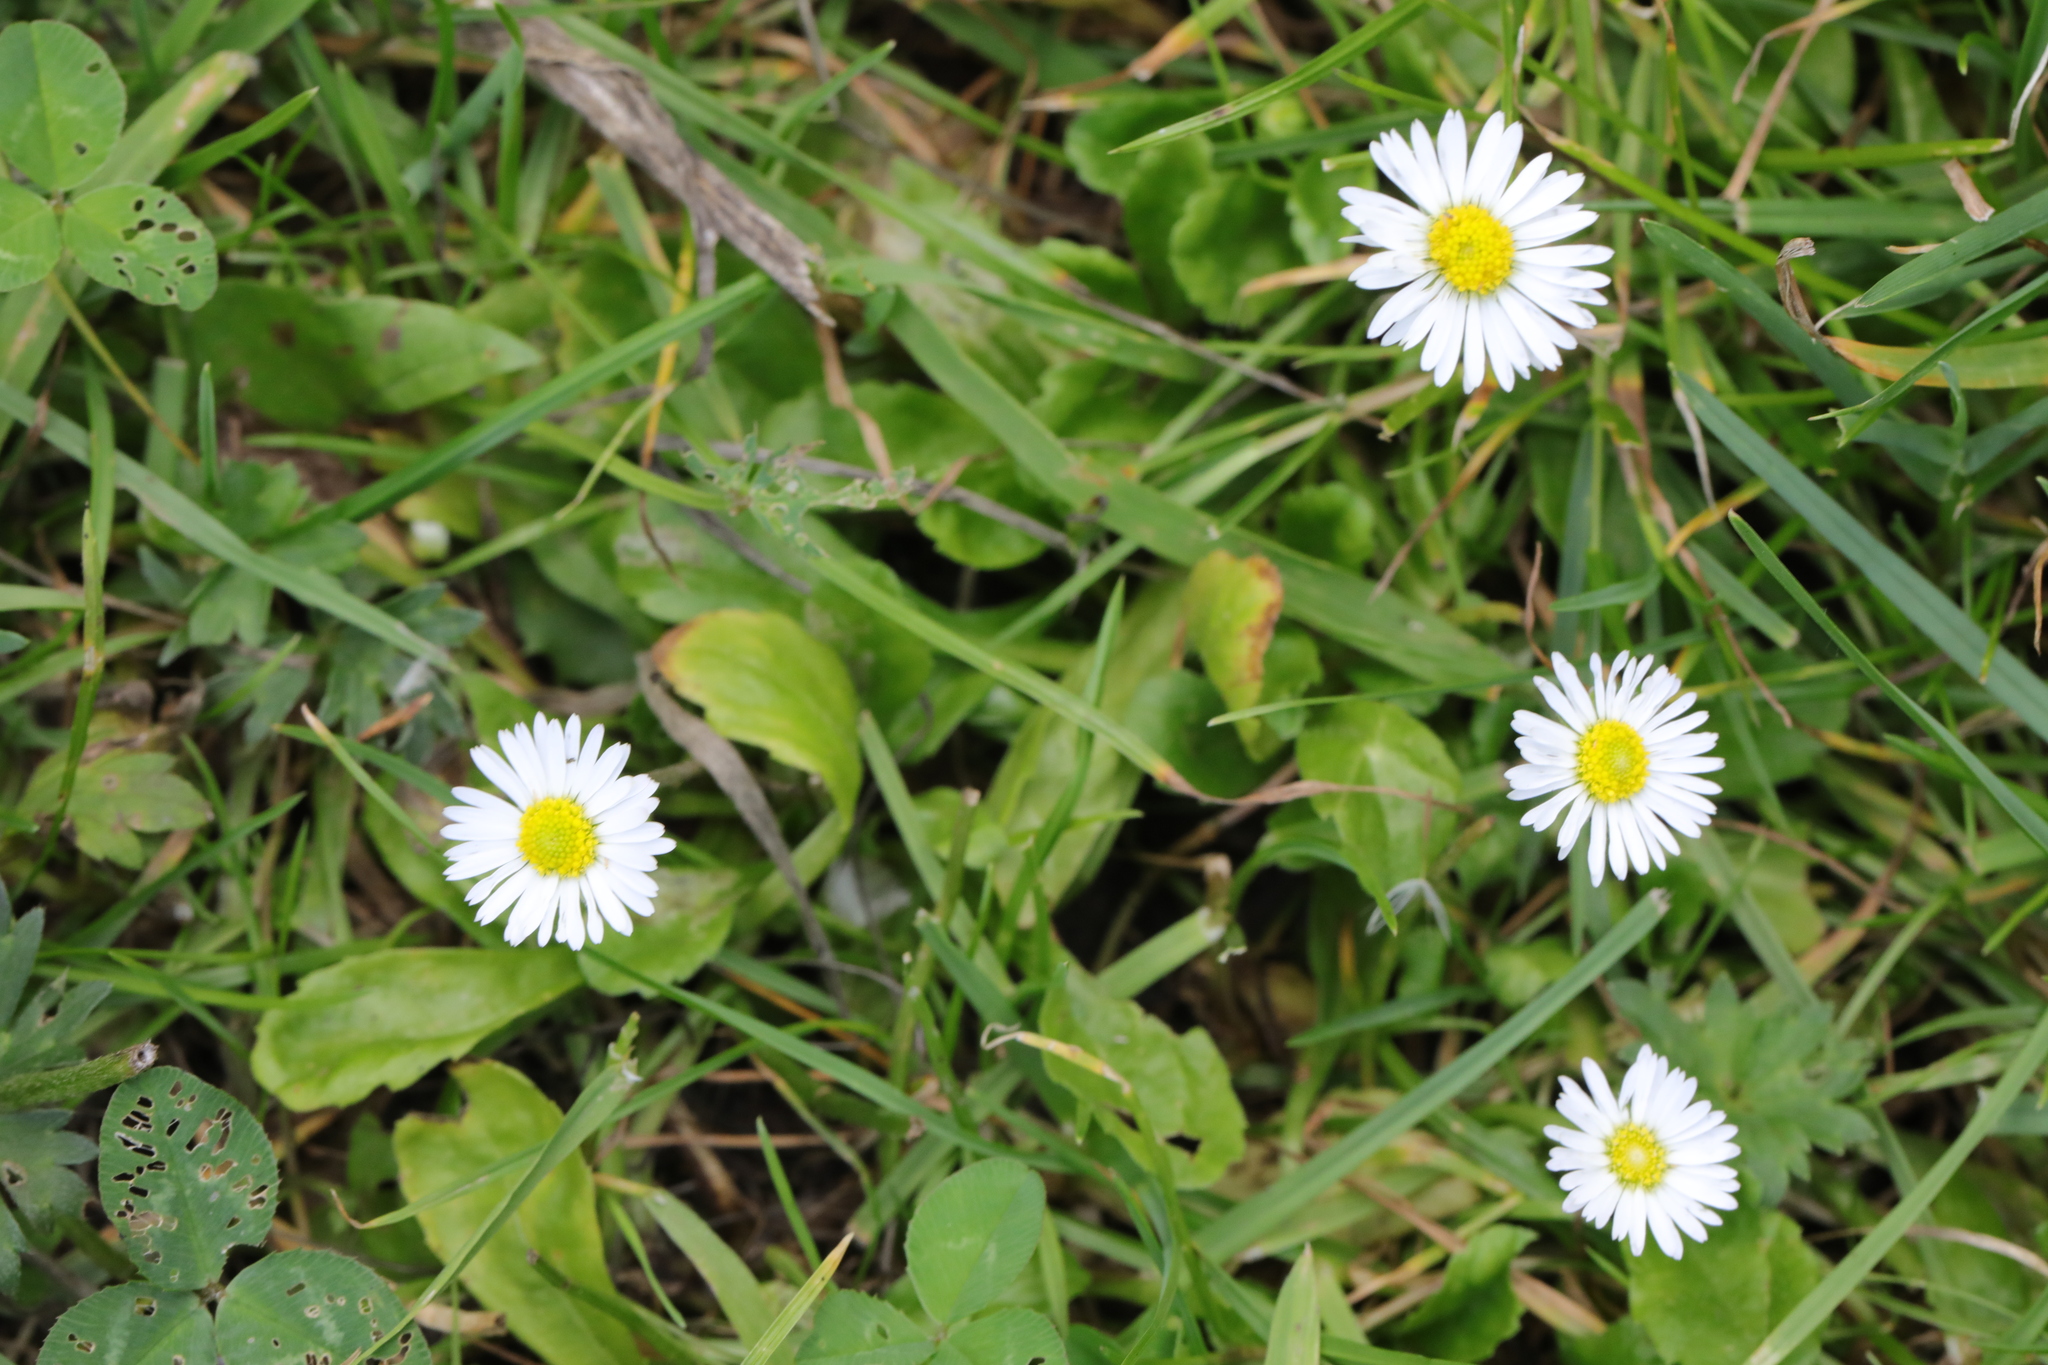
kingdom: Plantae
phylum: Tracheophyta
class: Magnoliopsida
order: Asterales
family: Asteraceae
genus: Bellis
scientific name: Bellis perennis
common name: Lawndaisy
